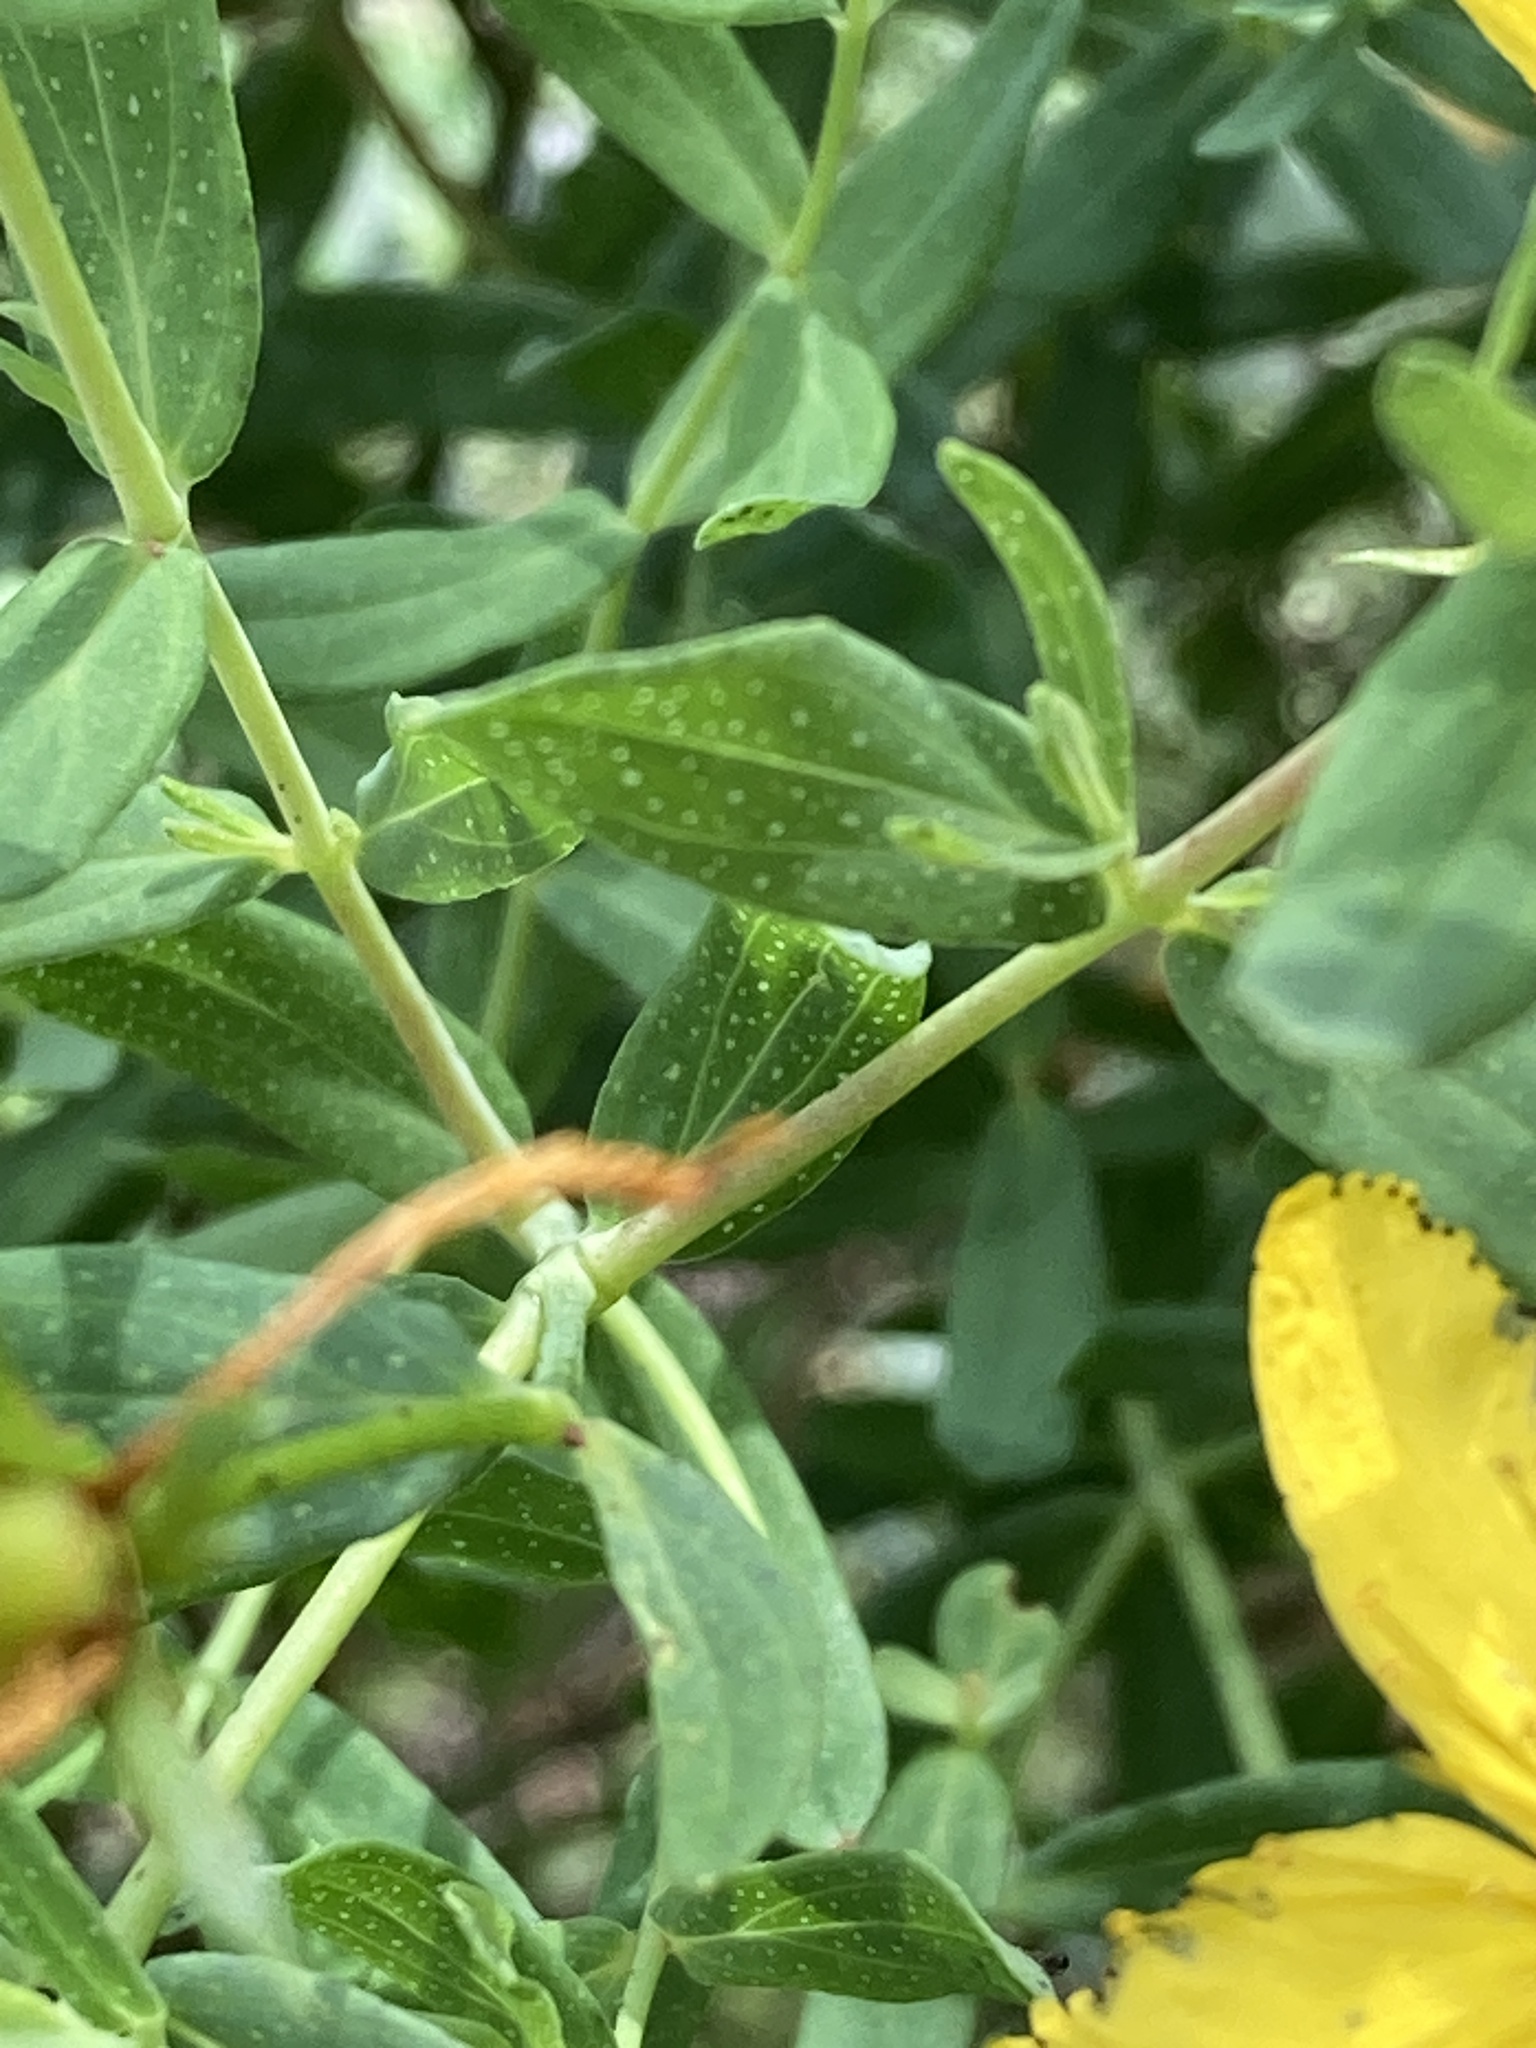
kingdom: Plantae
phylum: Tracheophyta
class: Magnoliopsida
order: Malpighiales
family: Hypericaceae
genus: Hypericum
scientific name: Hypericum perforatum
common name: Common st. johnswort
